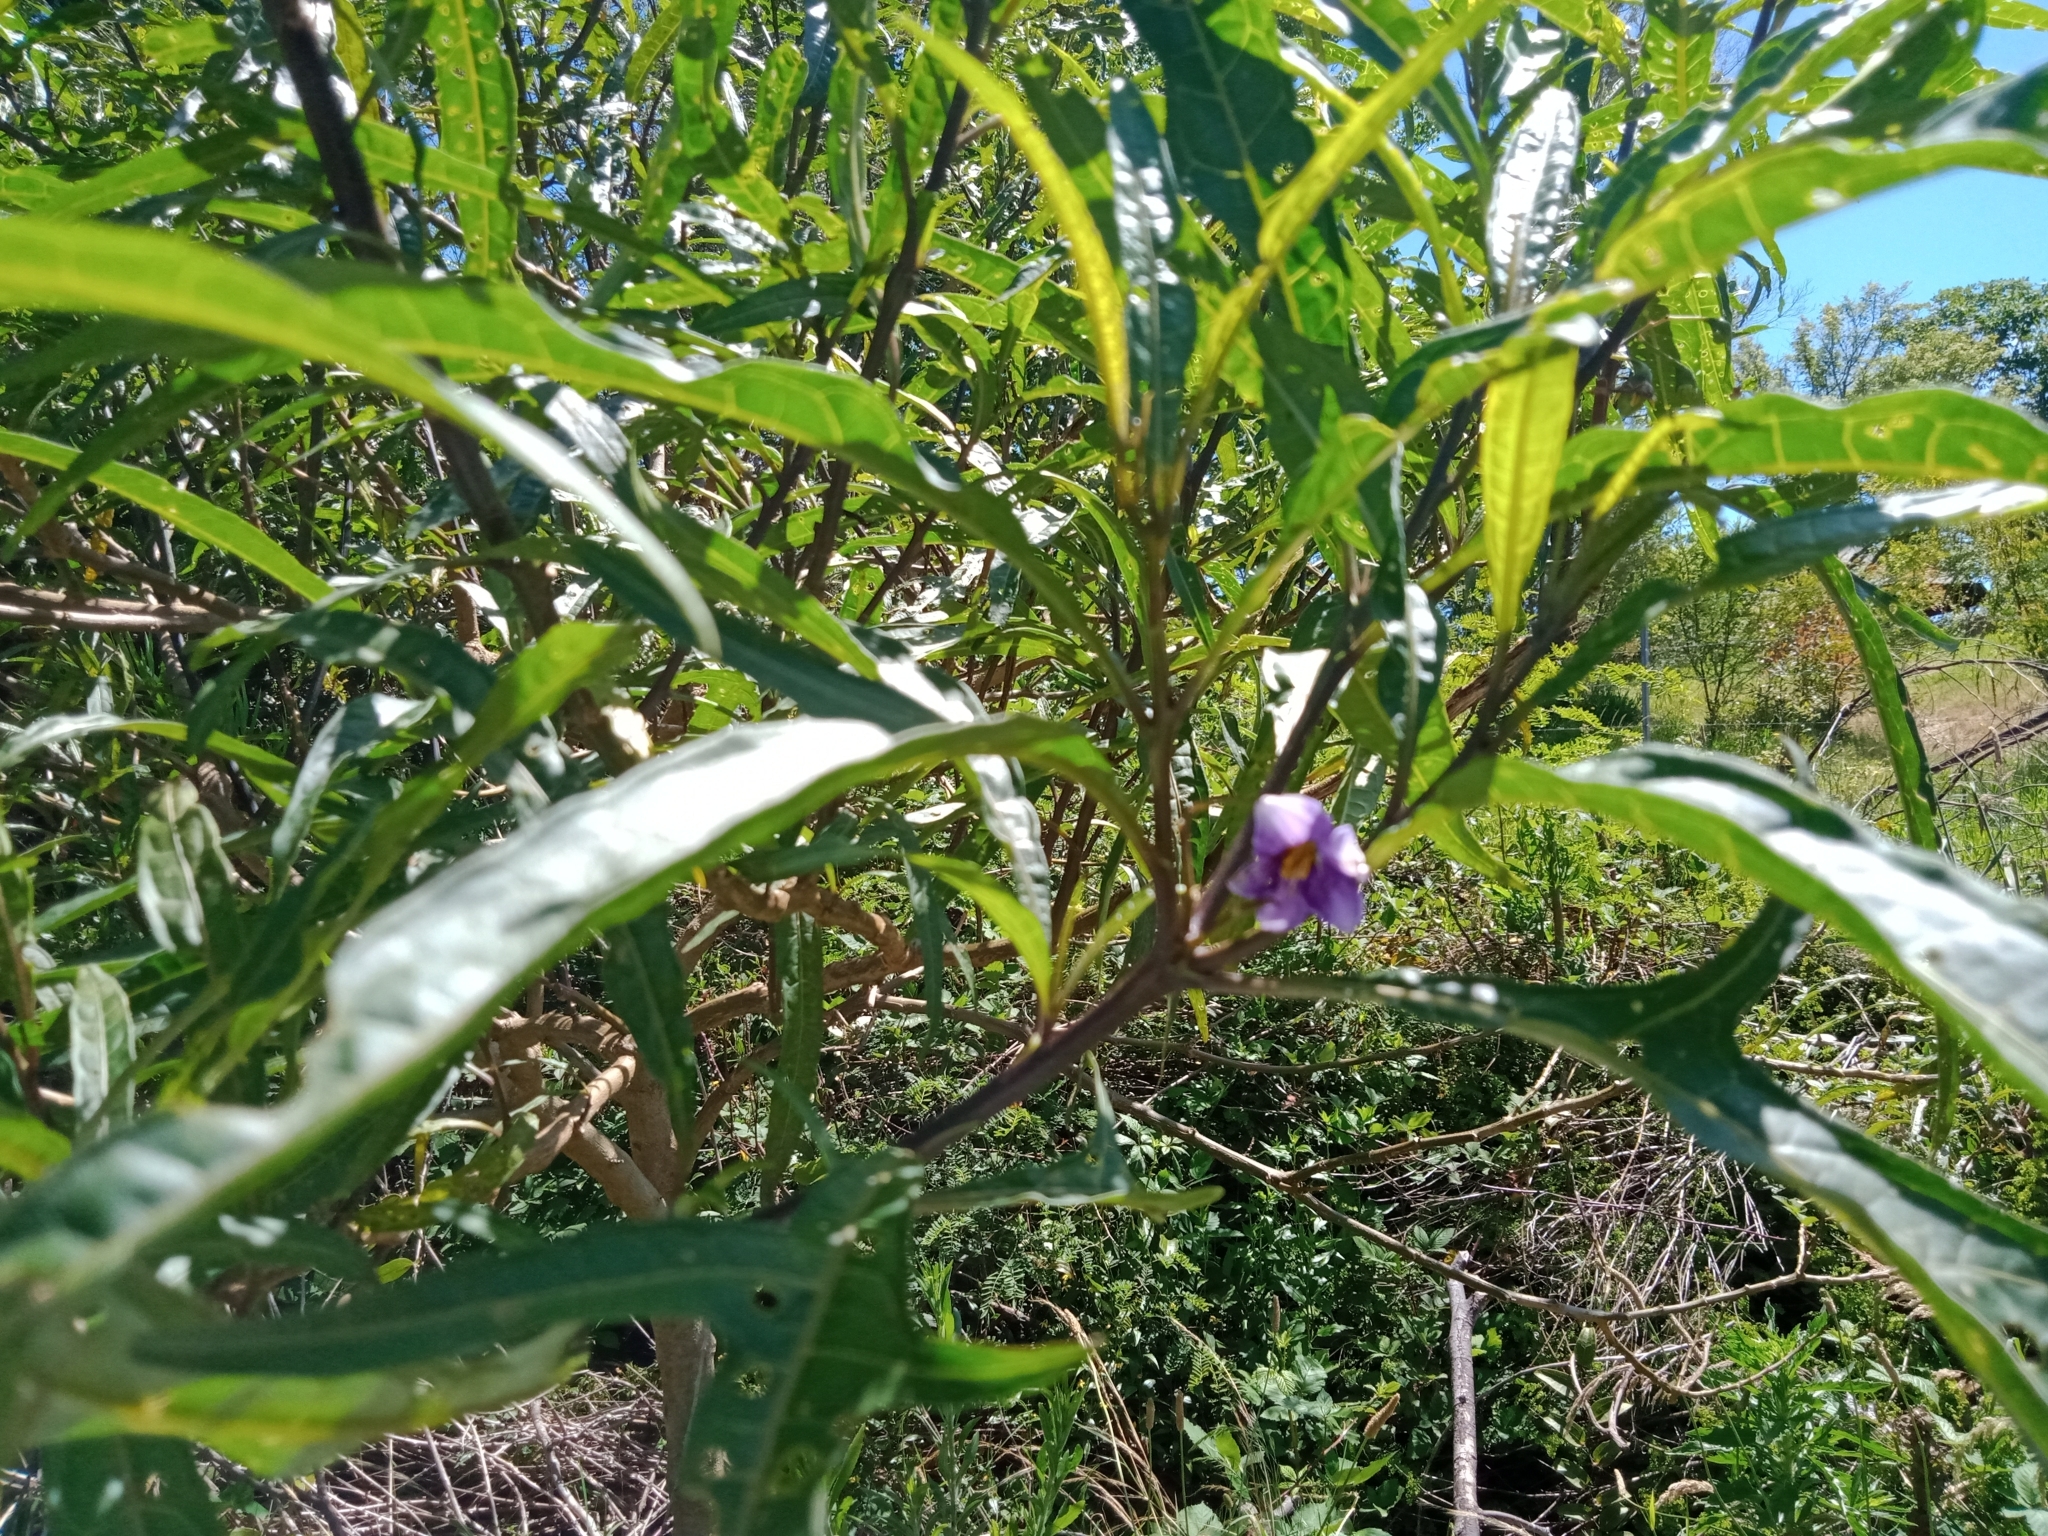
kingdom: Plantae
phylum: Tracheophyta
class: Magnoliopsida
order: Solanales
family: Solanaceae
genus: Solanum
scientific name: Solanum aviculare
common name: New zealand nightshade
